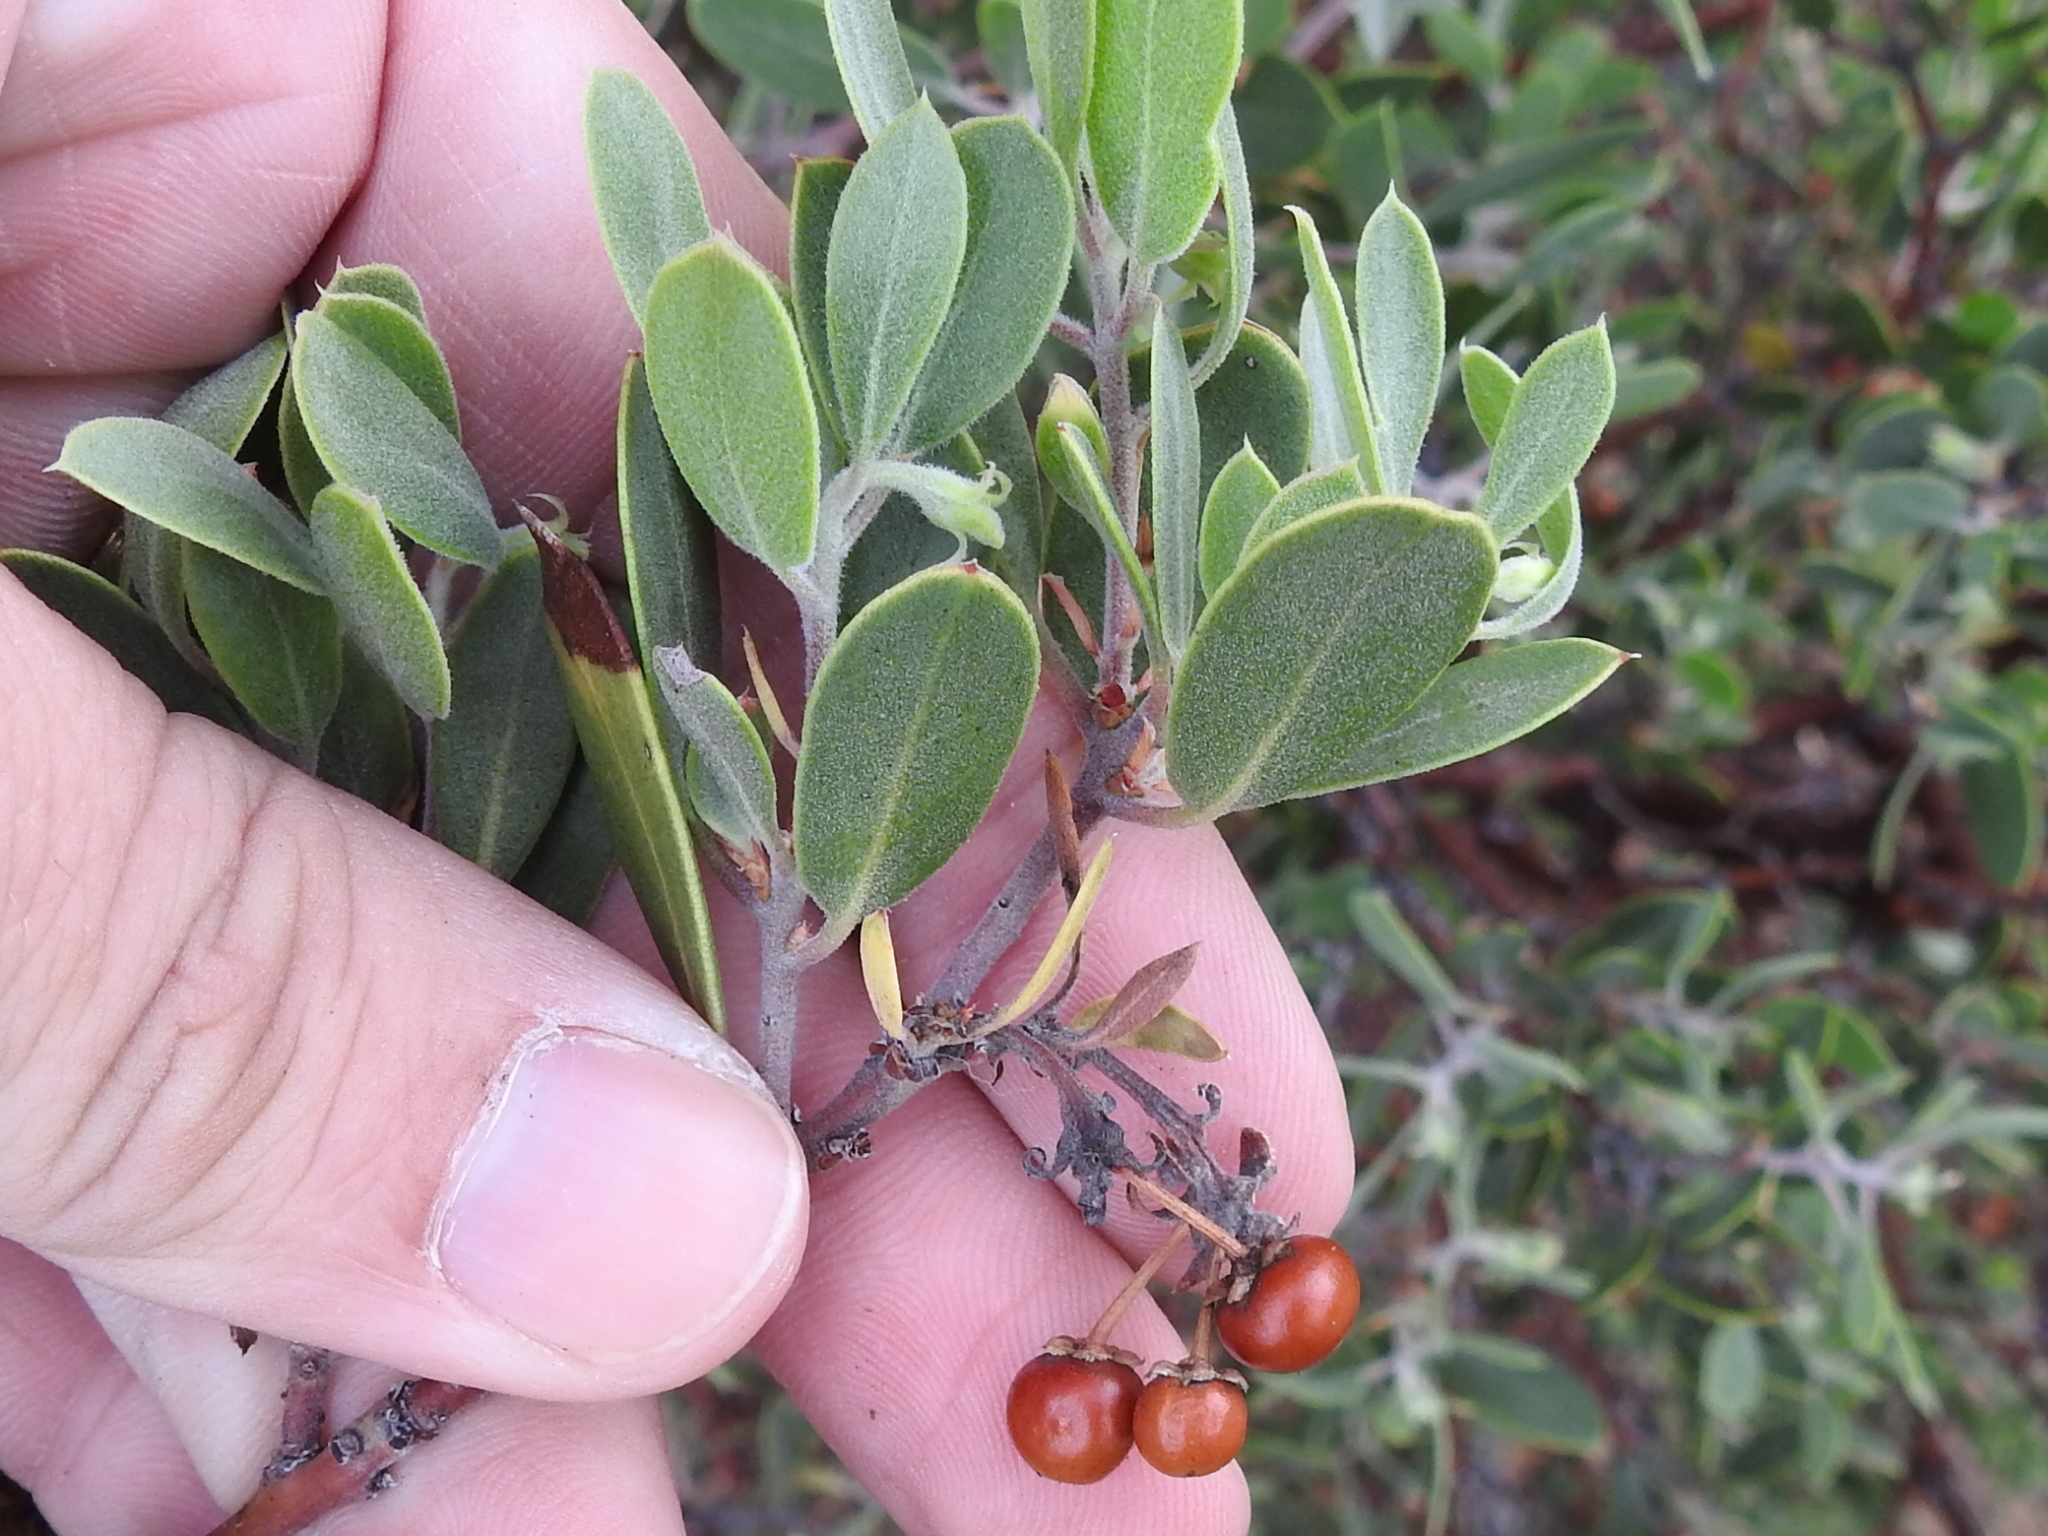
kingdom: Plantae
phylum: Tracheophyta
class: Magnoliopsida
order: Ericales
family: Ericaceae
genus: Arctostaphylos
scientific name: Arctostaphylos pungens
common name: Mexican manzanita
